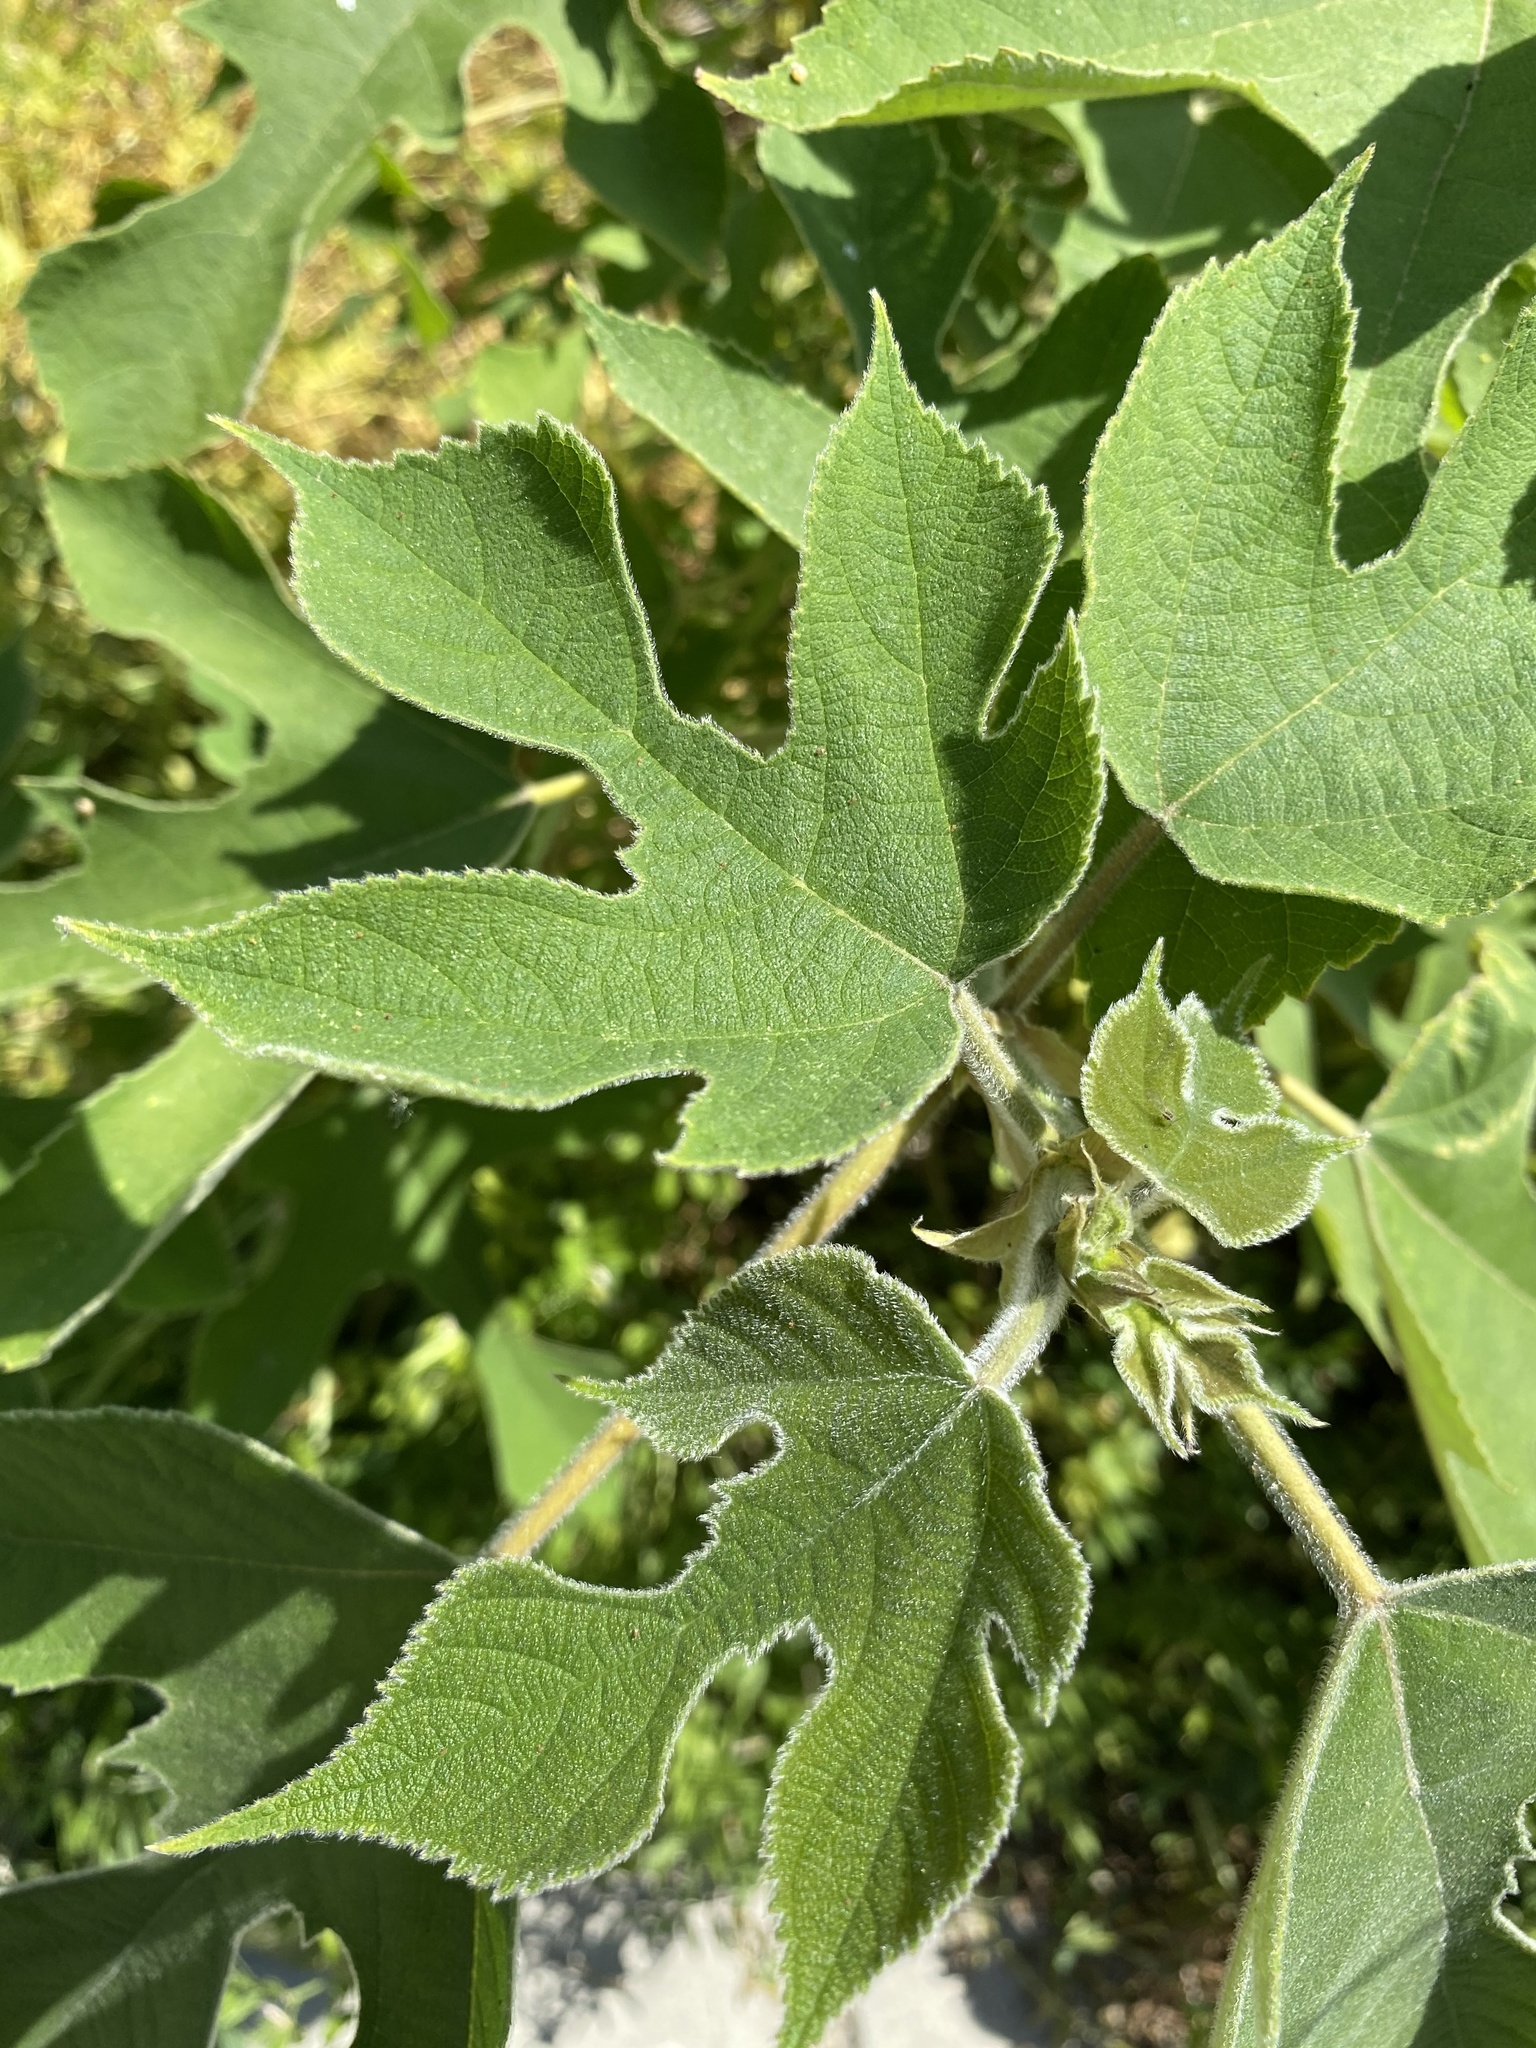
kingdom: Plantae
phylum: Tracheophyta
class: Magnoliopsida
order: Rosales
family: Moraceae
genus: Broussonetia
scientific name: Broussonetia papyrifera
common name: Paper mulberry
